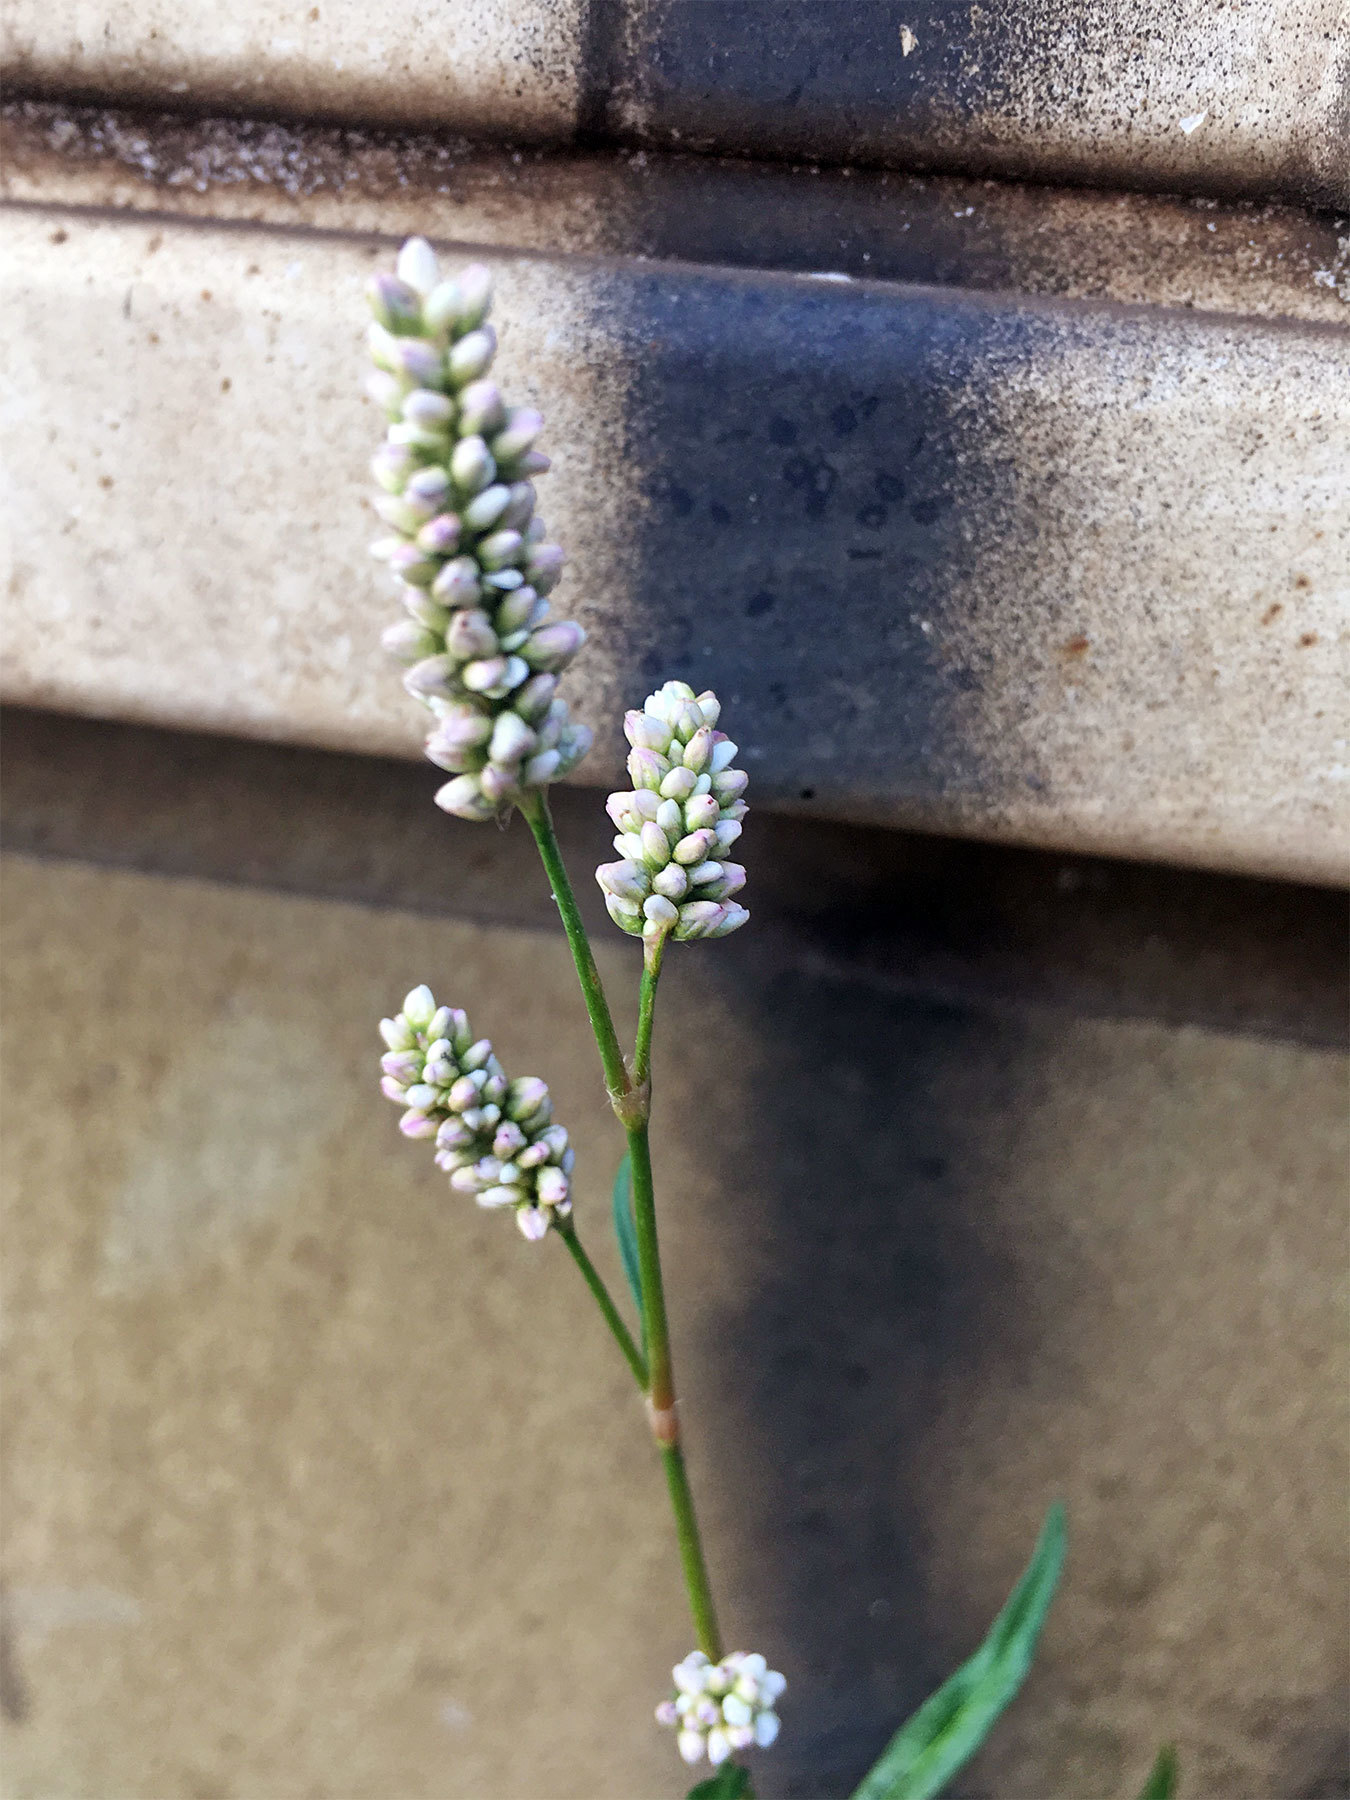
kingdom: Plantae
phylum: Tracheophyta
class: Magnoliopsida
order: Caryophyllales
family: Polygonaceae
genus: Persicaria
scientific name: Persicaria maculosa
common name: Redshank
